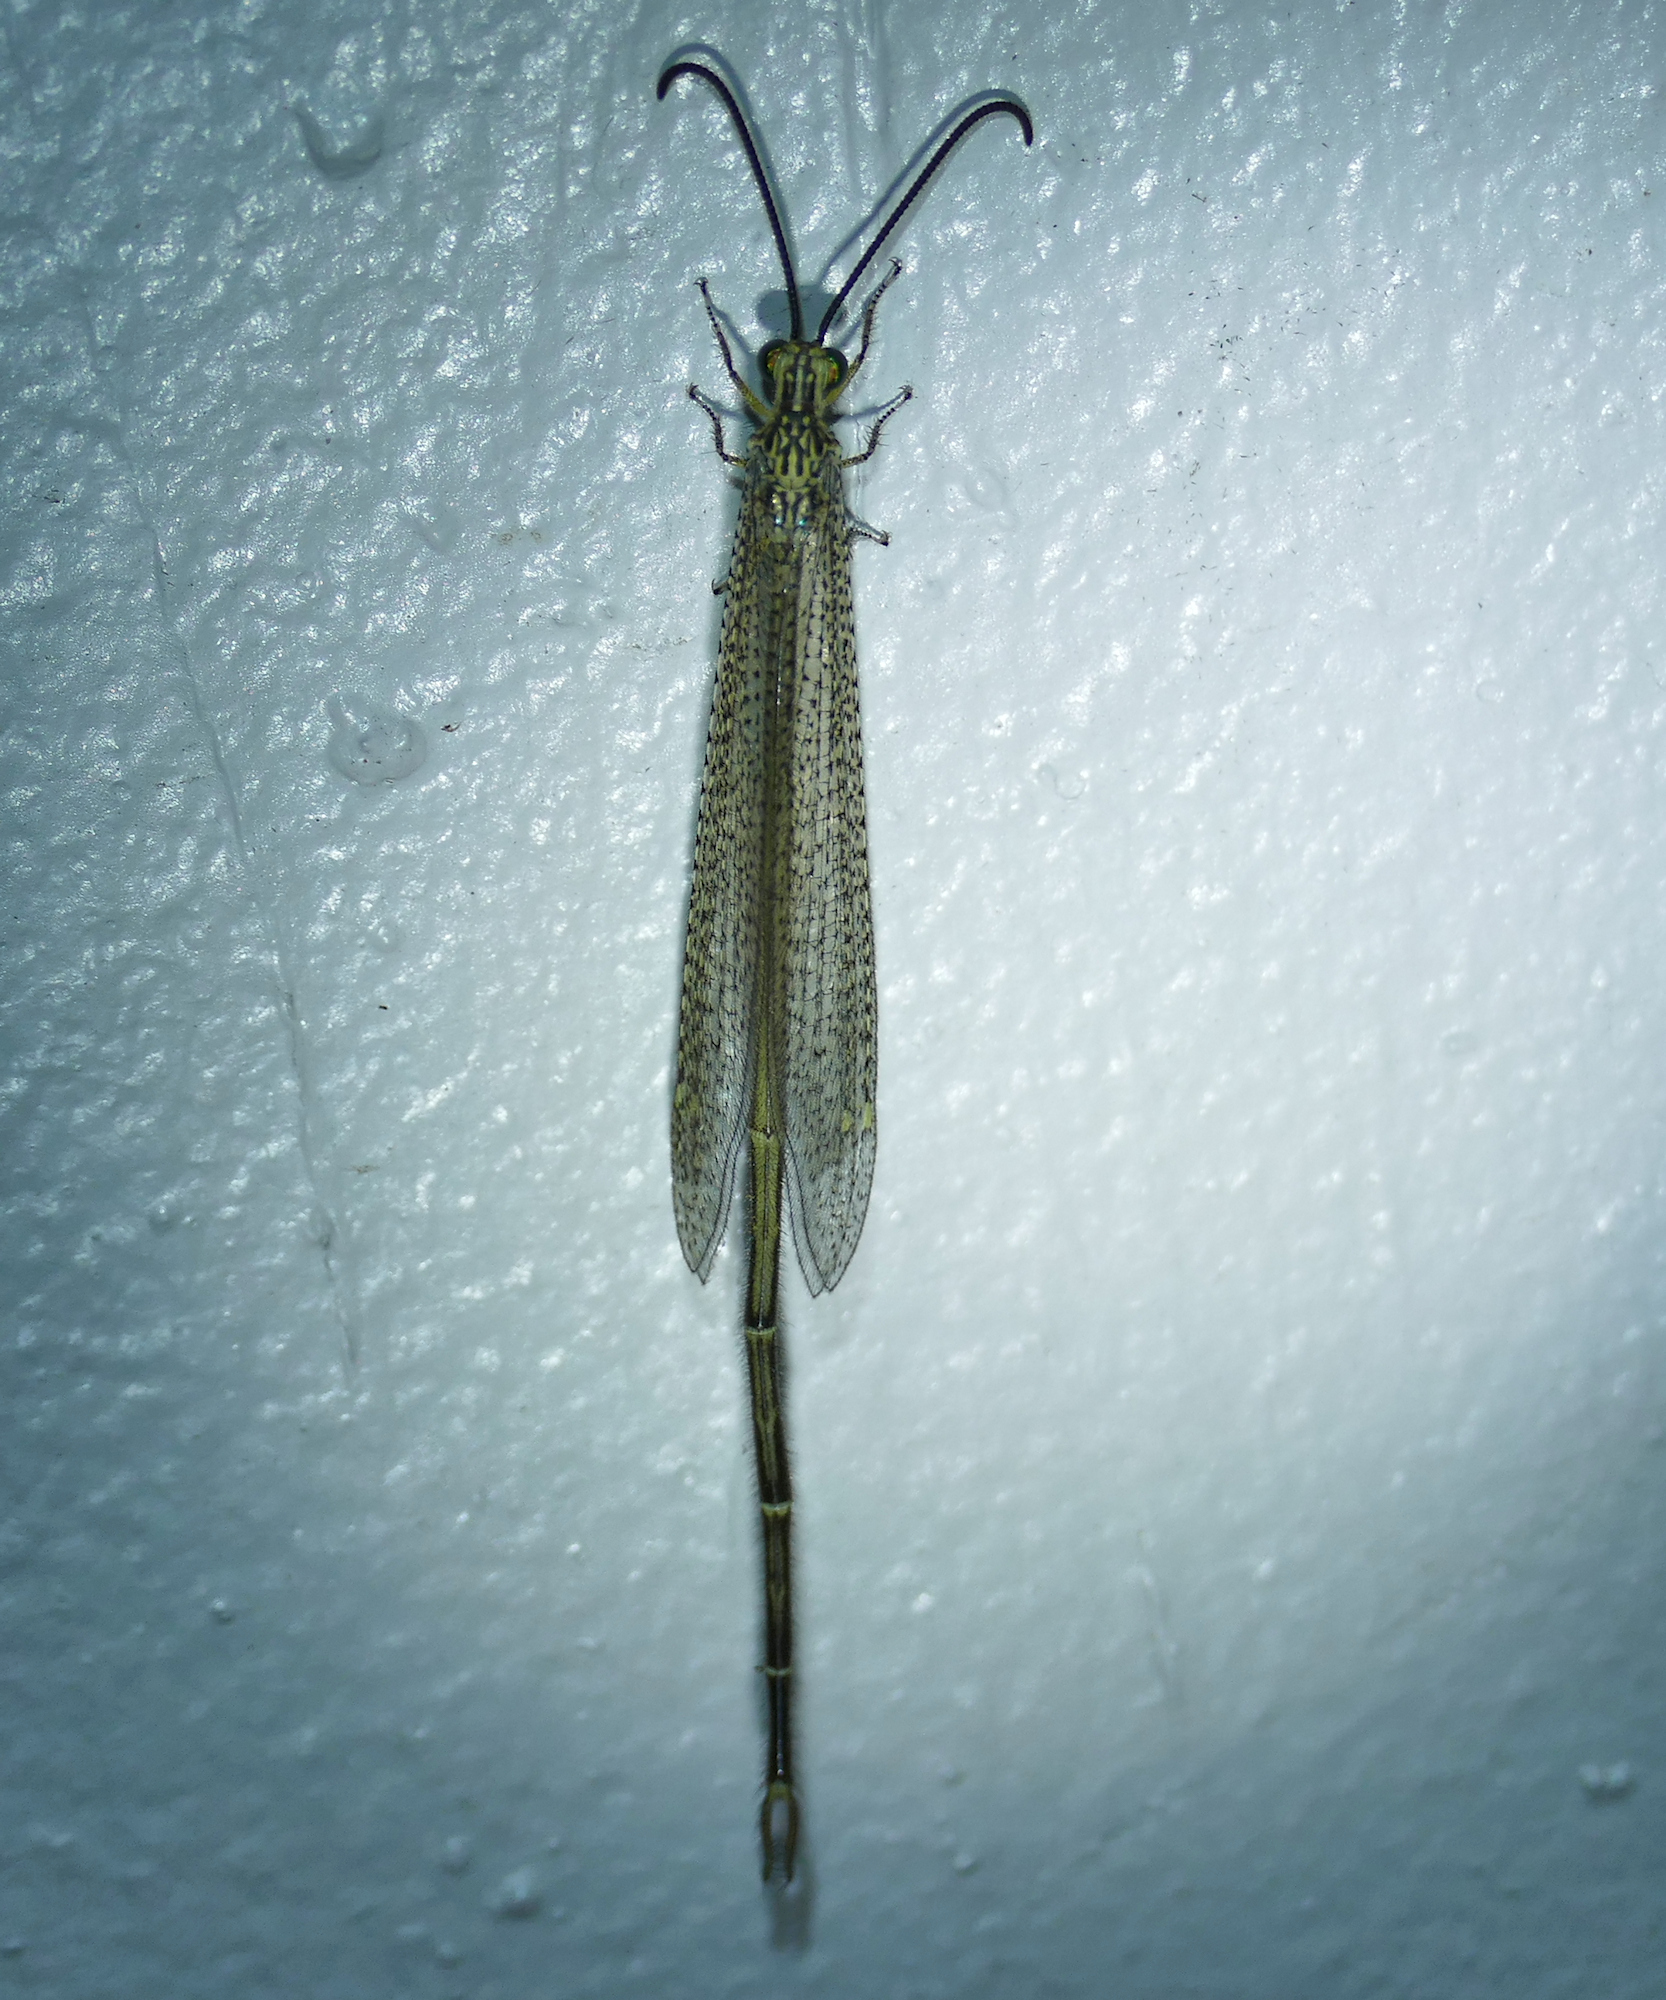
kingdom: Animalia
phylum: Arthropoda
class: Insecta
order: Neuroptera
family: Myrmeleontidae
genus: Brachynemurus
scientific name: Brachynemurus versutus
